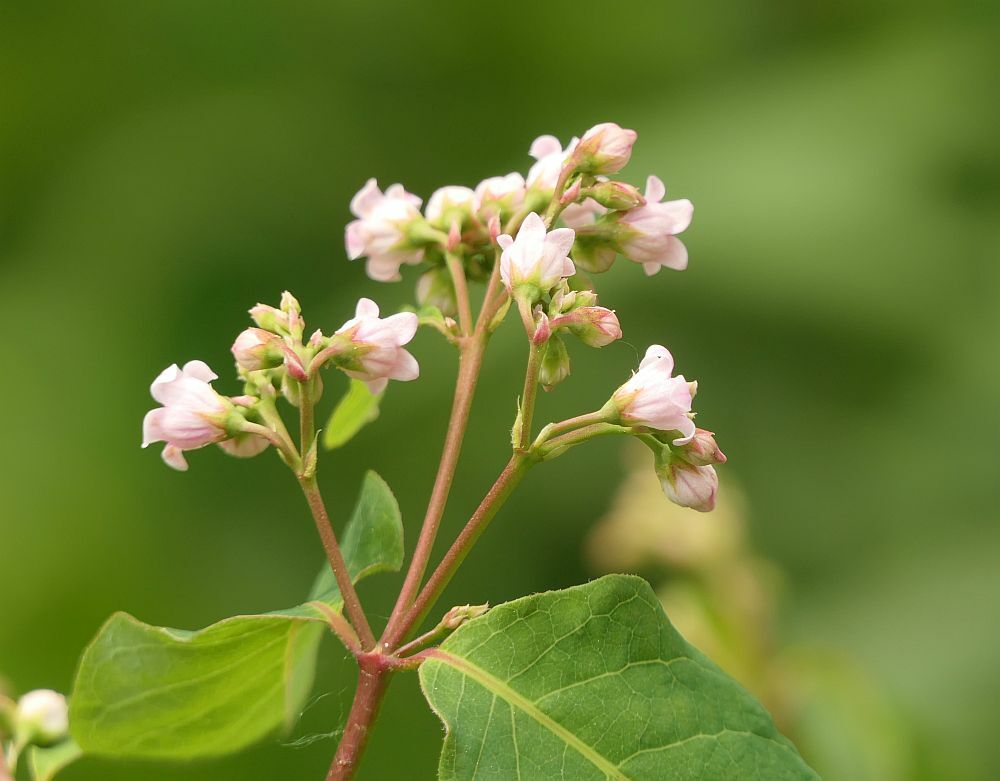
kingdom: Plantae
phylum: Tracheophyta
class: Magnoliopsida
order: Gentianales
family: Apocynaceae
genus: Apocynum
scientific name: Apocynum androsaemifolium
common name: Spreading dogbane
